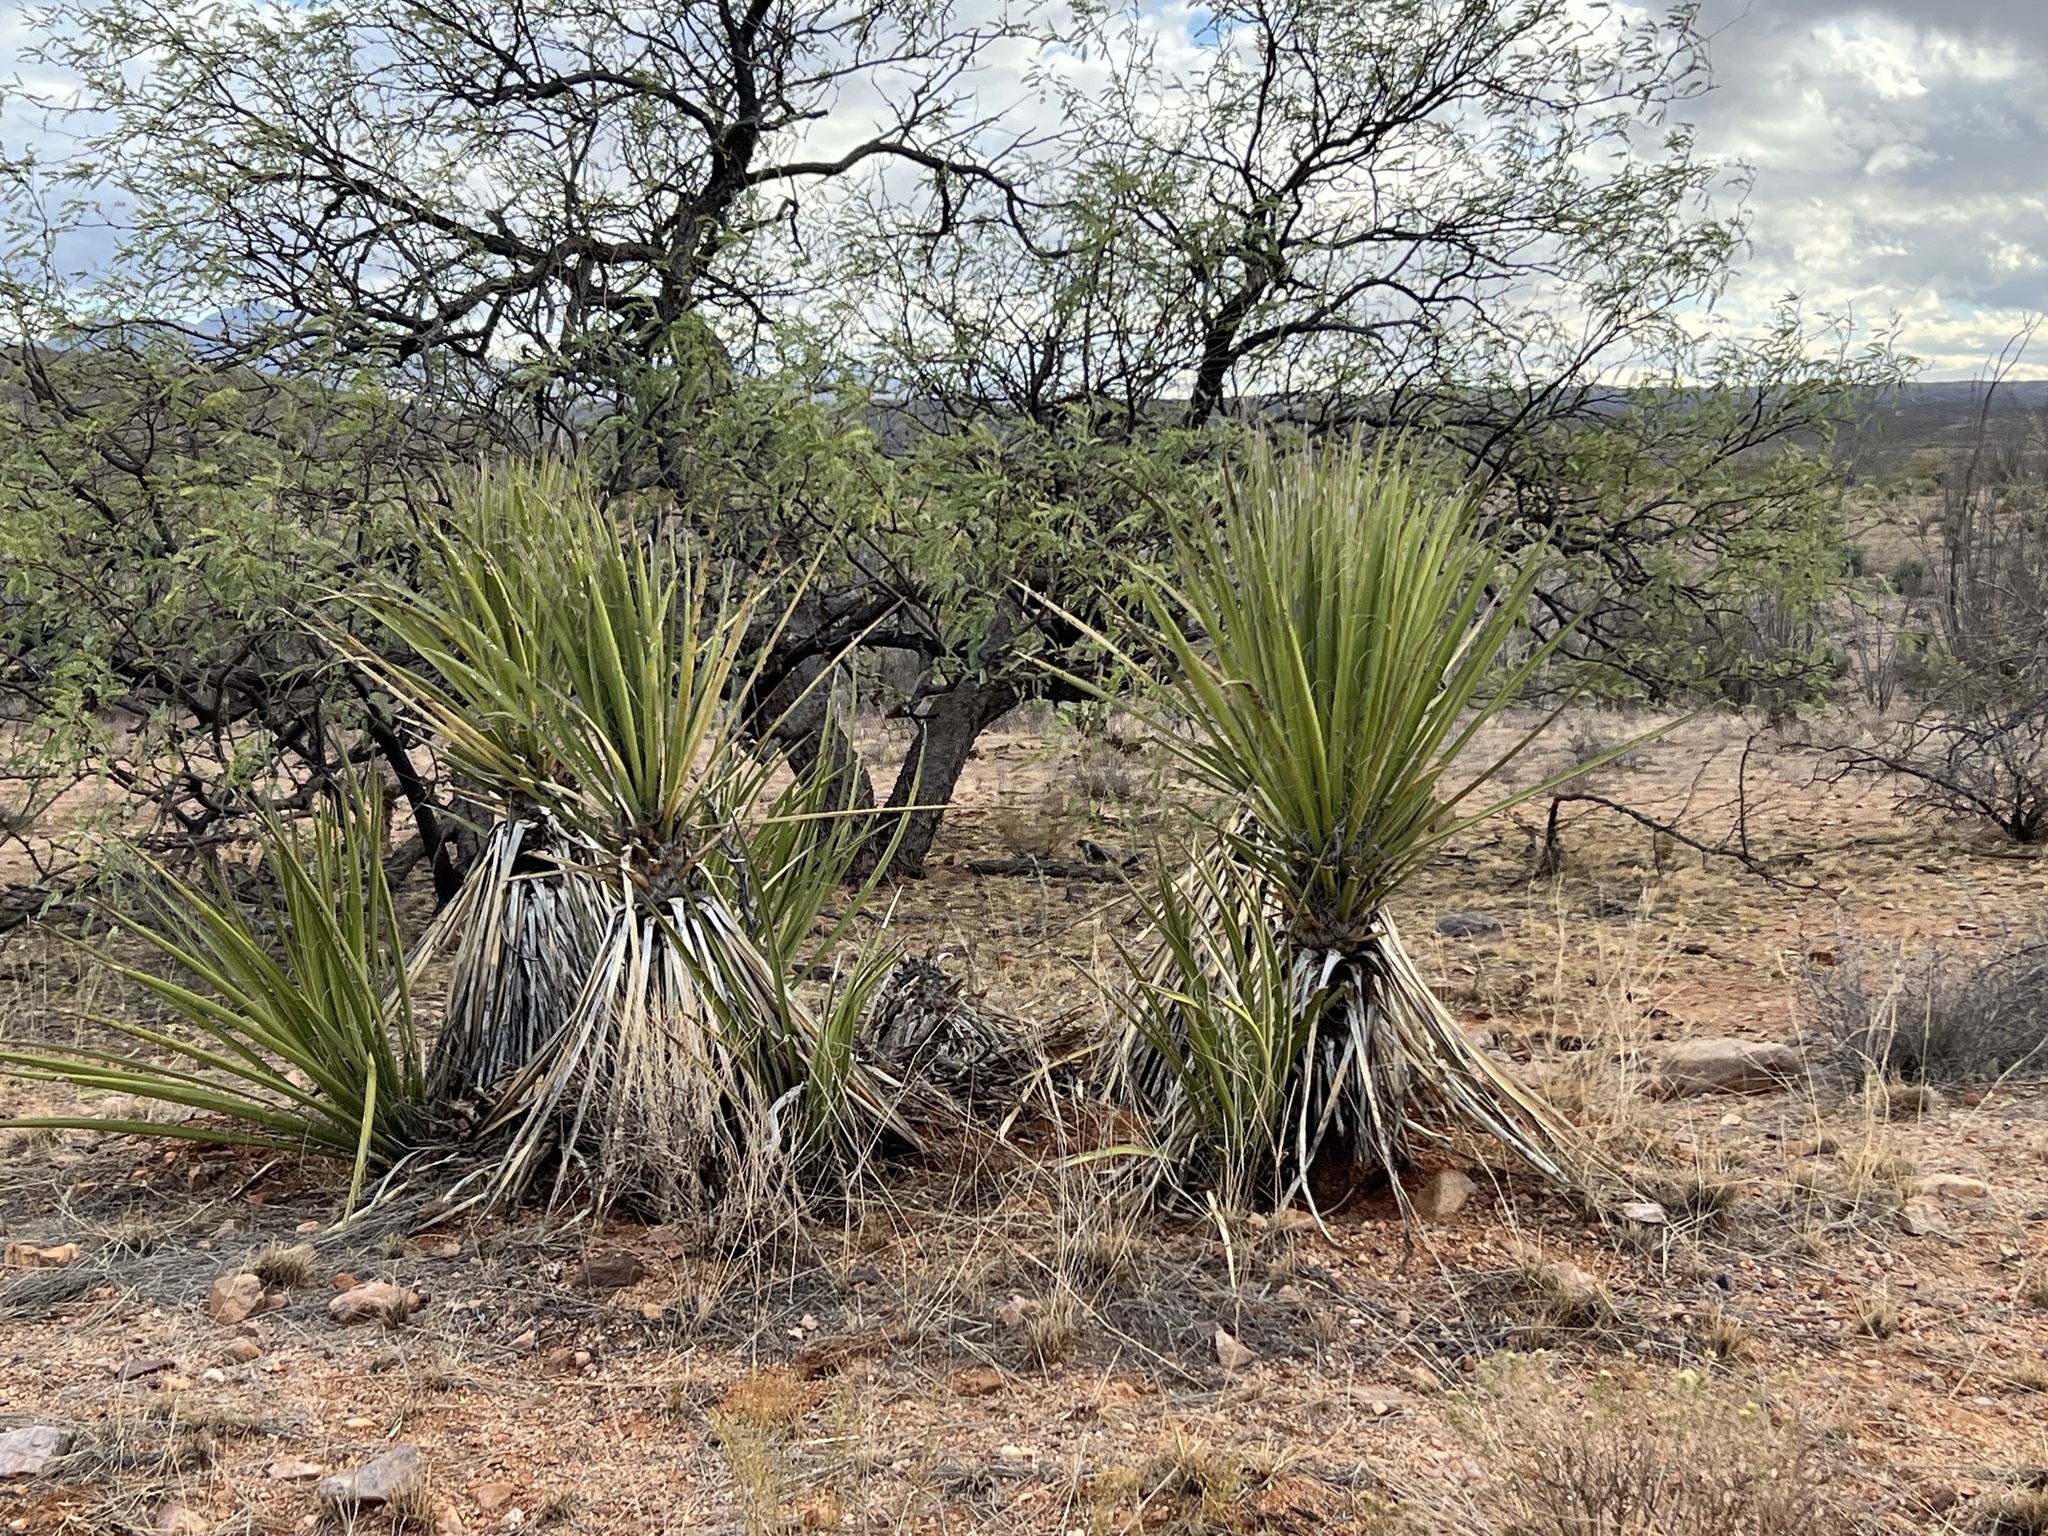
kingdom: Plantae
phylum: Tracheophyta
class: Liliopsida
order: Asparagales
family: Asparagaceae
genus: Yucca
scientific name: Yucca baccata
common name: Banana yucca
